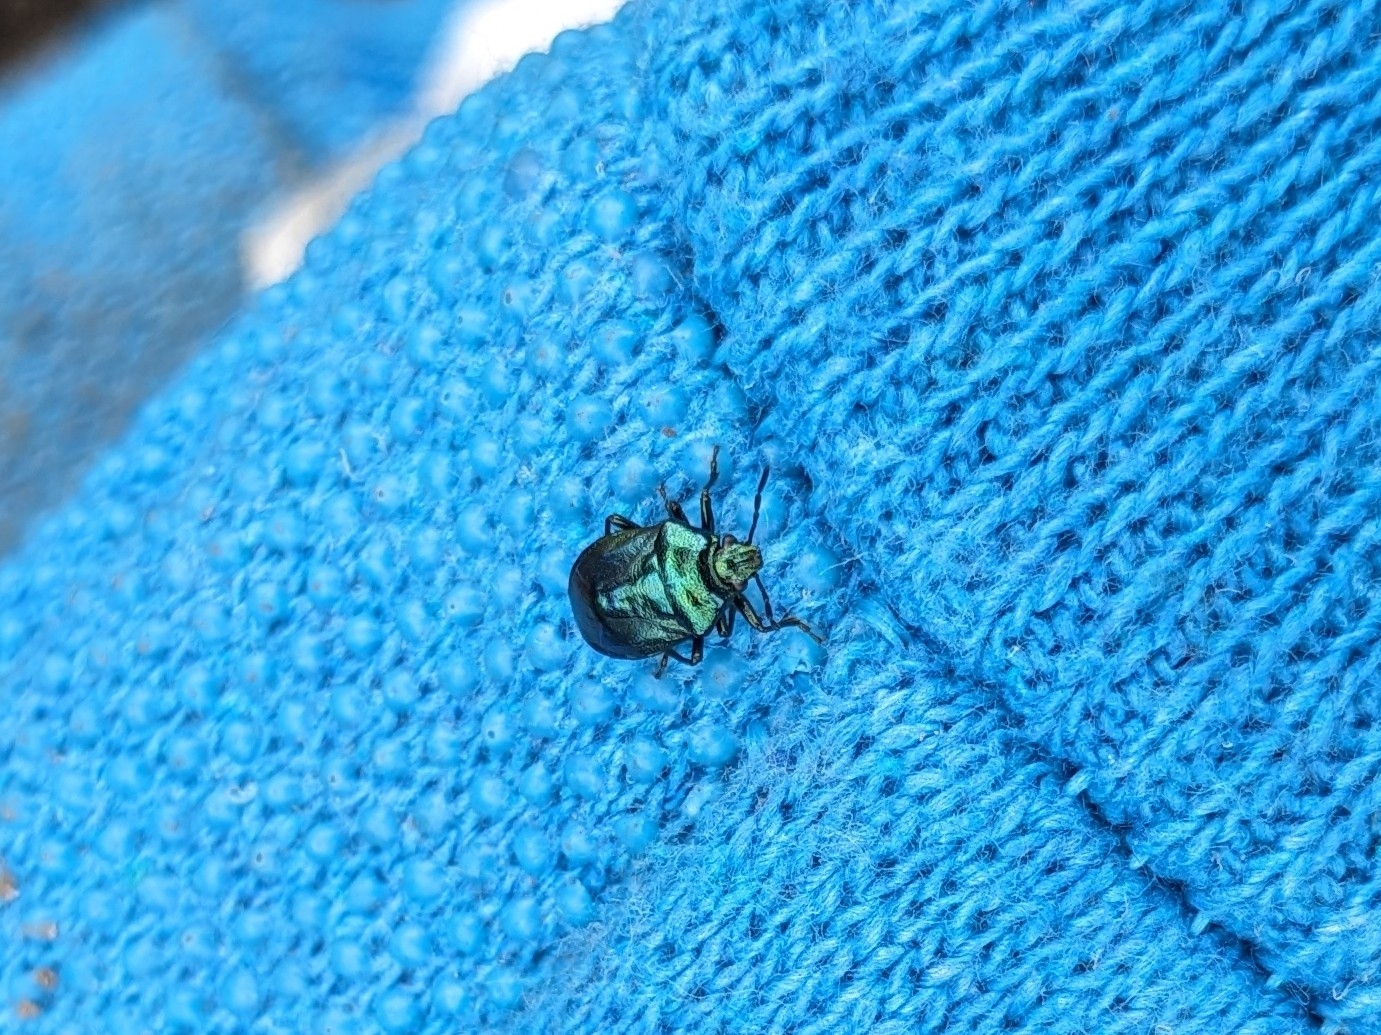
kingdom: Animalia
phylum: Arthropoda
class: Insecta
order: Hemiptera
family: Pentatomidae
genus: Zicrona
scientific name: Zicrona caerulea
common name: Blue shieldbug
